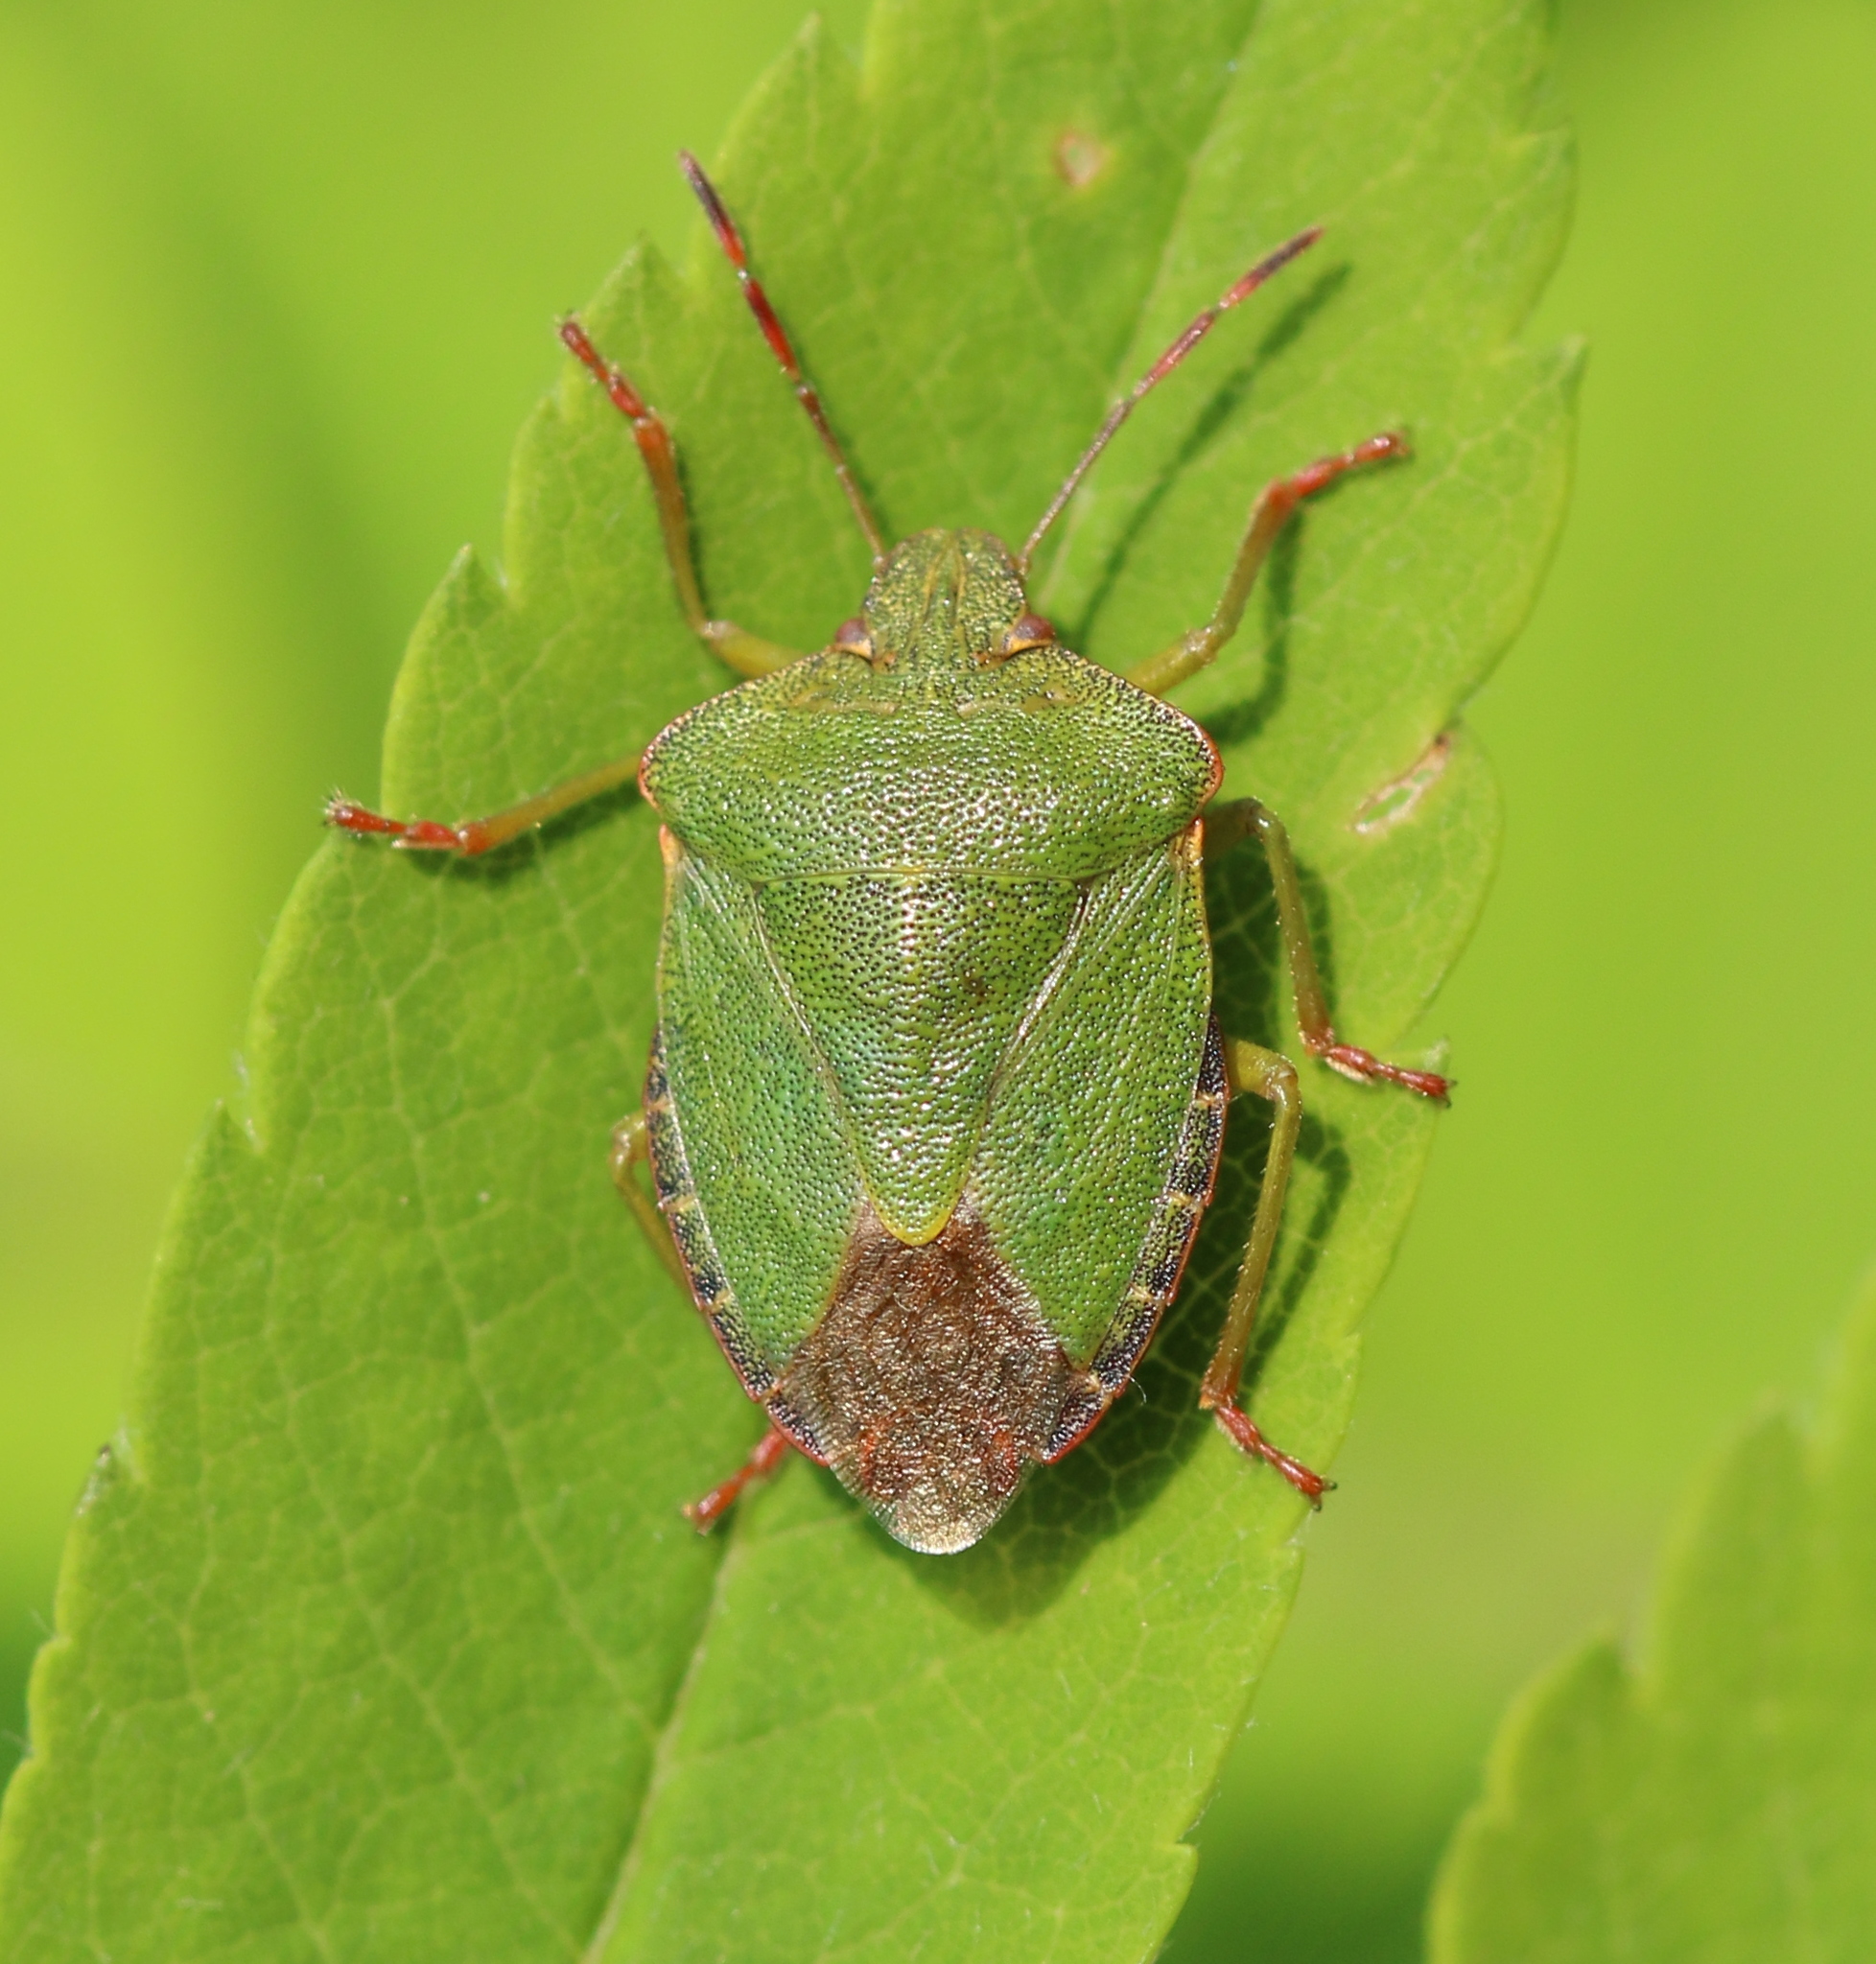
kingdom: Animalia
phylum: Arthropoda
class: Insecta
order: Hemiptera
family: Pentatomidae
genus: Palomena
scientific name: Palomena prasina
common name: Green shieldbug
